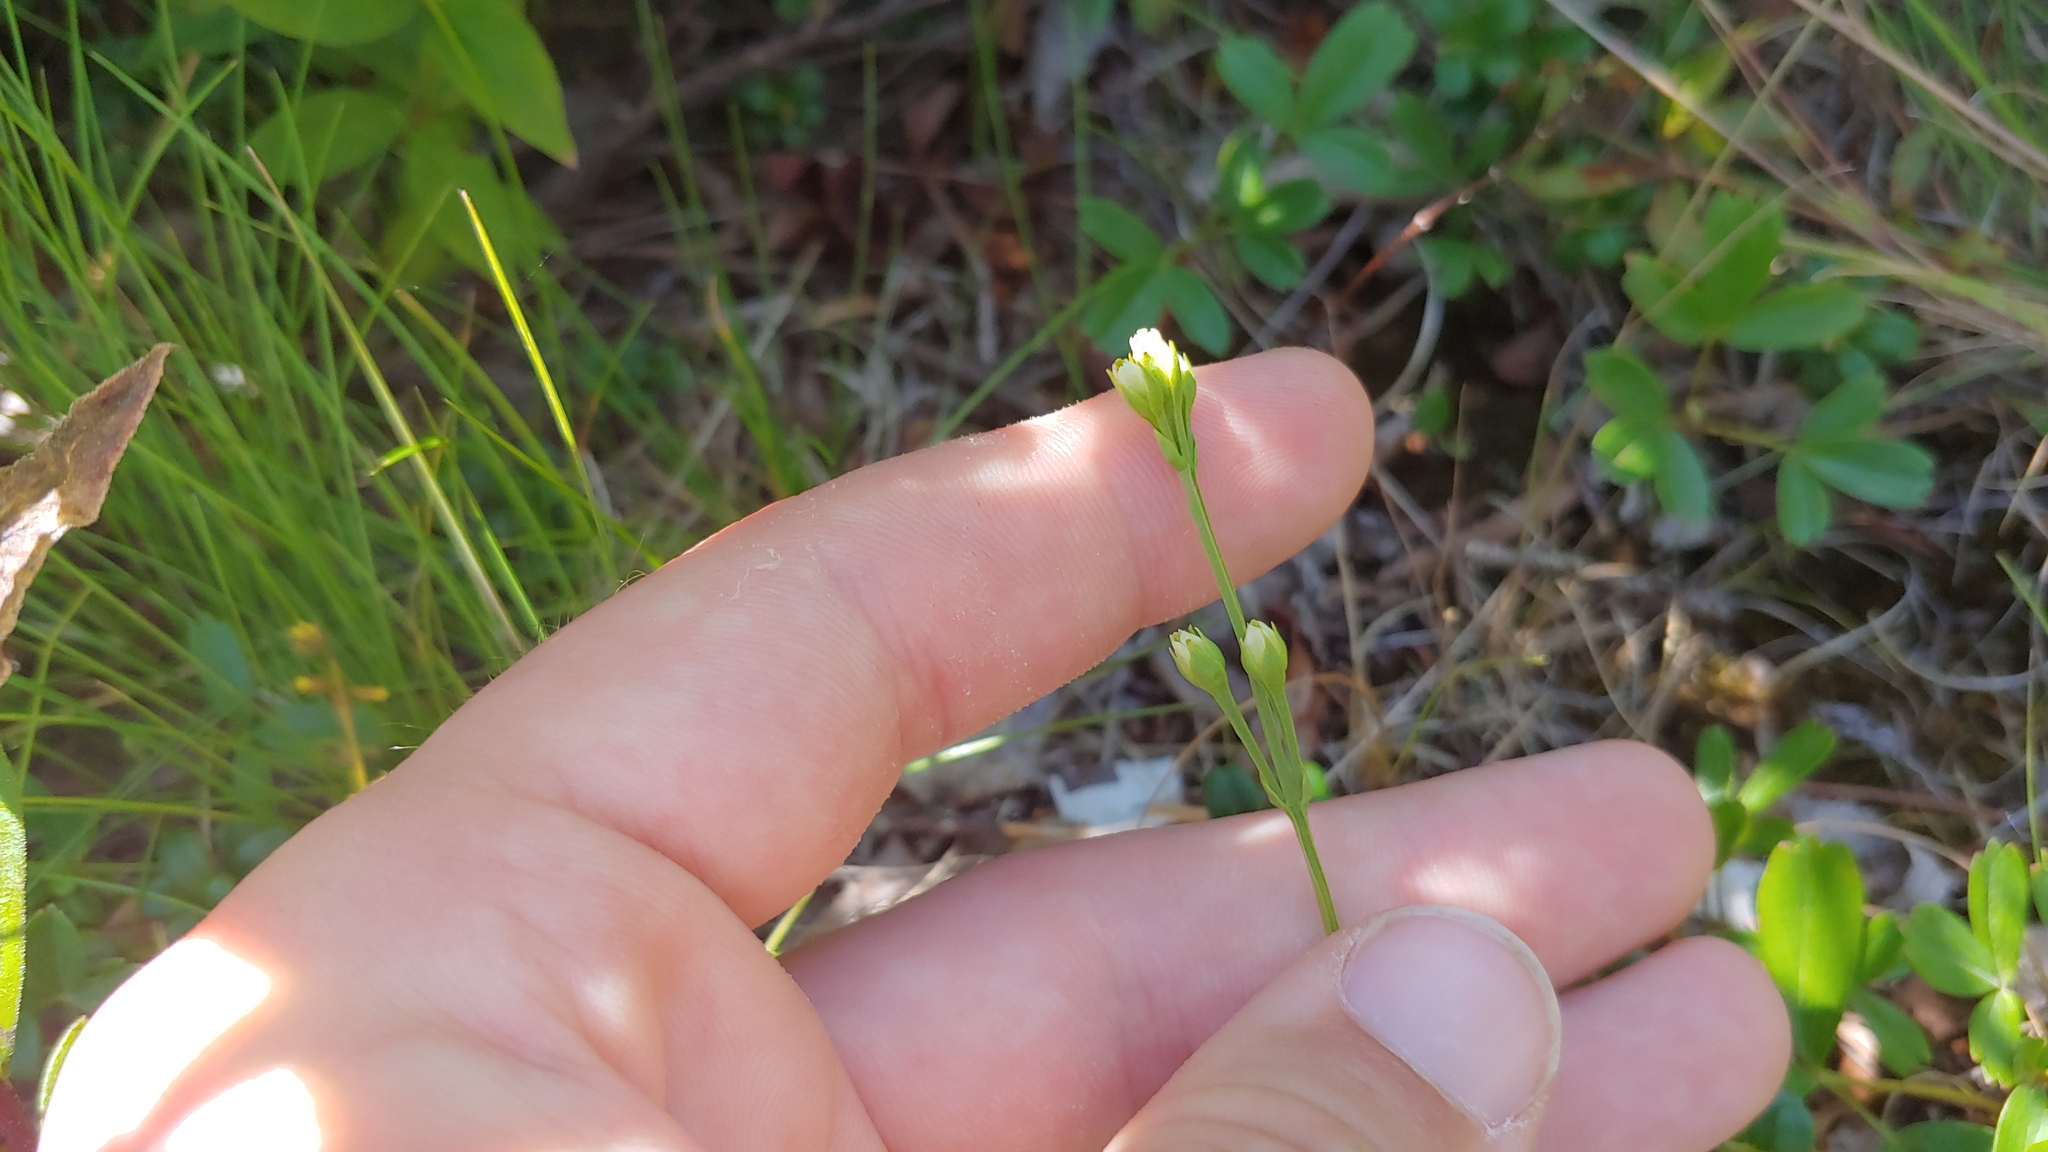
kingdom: Plantae
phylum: Tracheophyta
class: Magnoliopsida
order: Gentianales
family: Gentianaceae
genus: Bartonia
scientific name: Bartonia virginica
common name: Yellow bartonia
